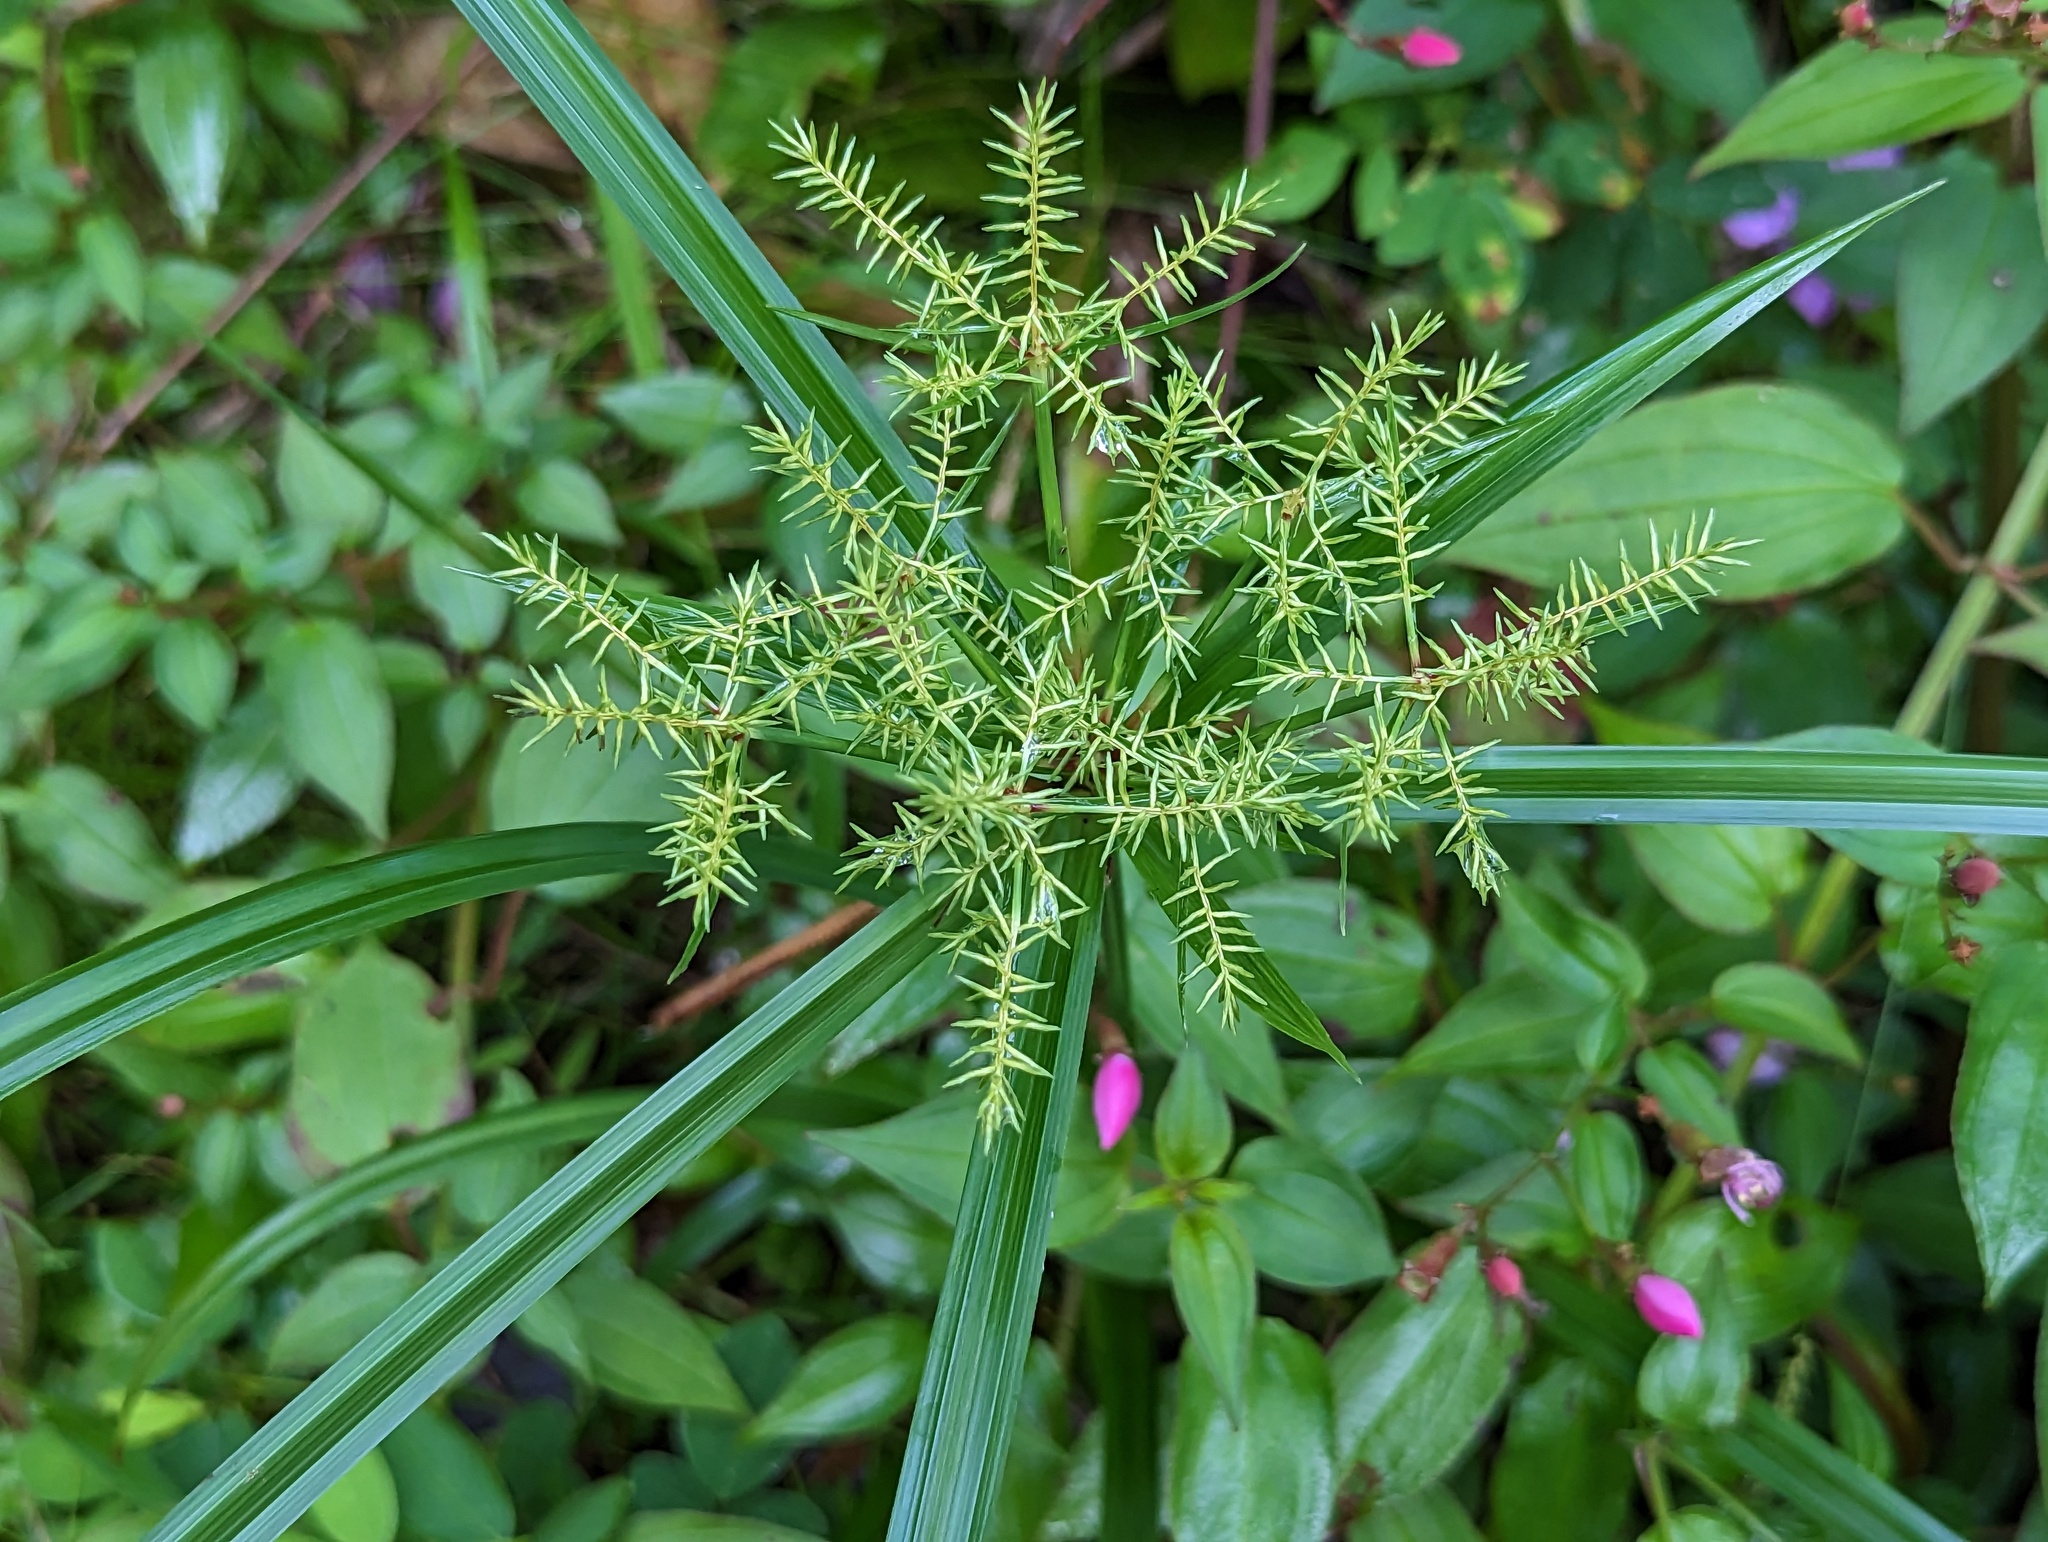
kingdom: Plantae
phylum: Tracheophyta
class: Liliopsida
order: Poales
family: Cyperaceae
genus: Cyperus
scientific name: Cyperus odoratus
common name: Fragrant flatsedge
